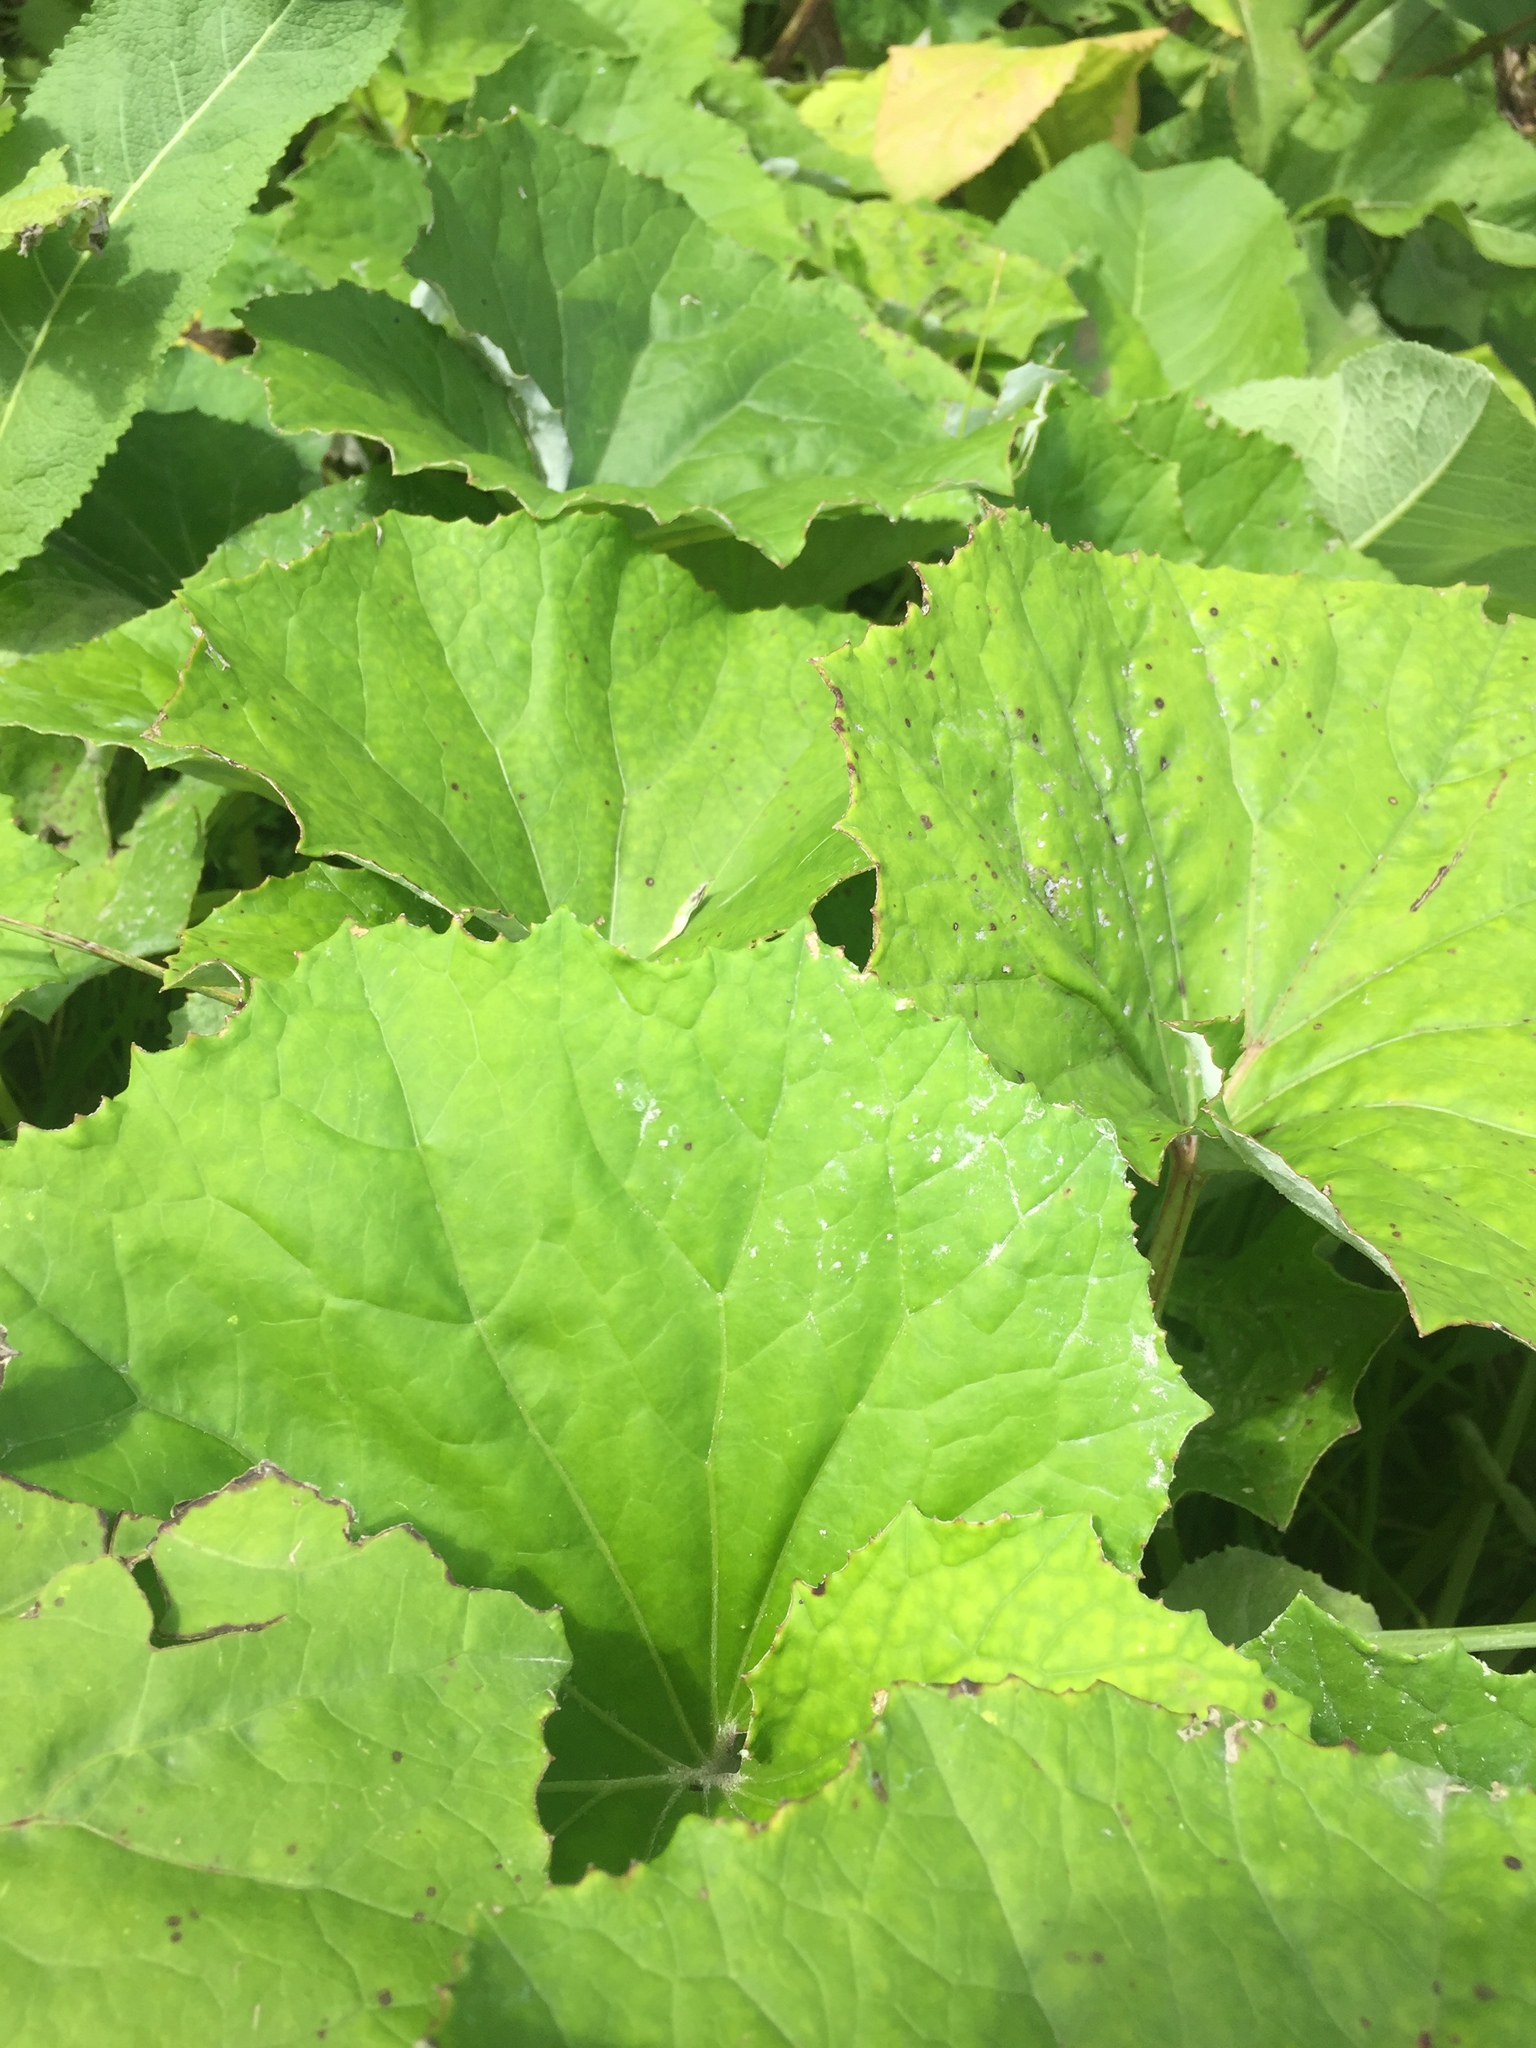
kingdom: Plantae
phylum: Tracheophyta
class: Magnoliopsida
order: Asterales
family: Asteraceae
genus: Tussilago
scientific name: Tussilago farfara
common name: Coltsfoot
